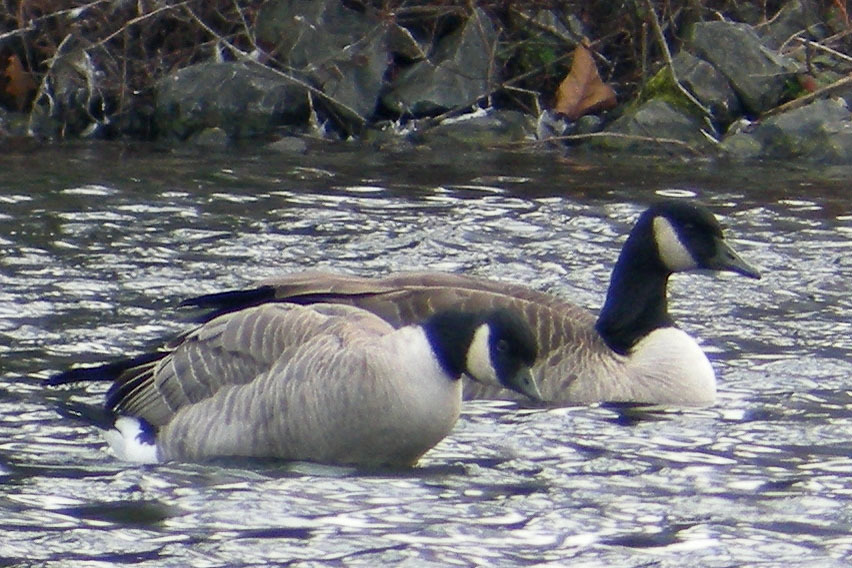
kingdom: Animalia
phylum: Chordata
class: Aves
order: Anseriformes
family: Anatidae
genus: Branta
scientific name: Branta hutchinsii
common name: Cackling goose
